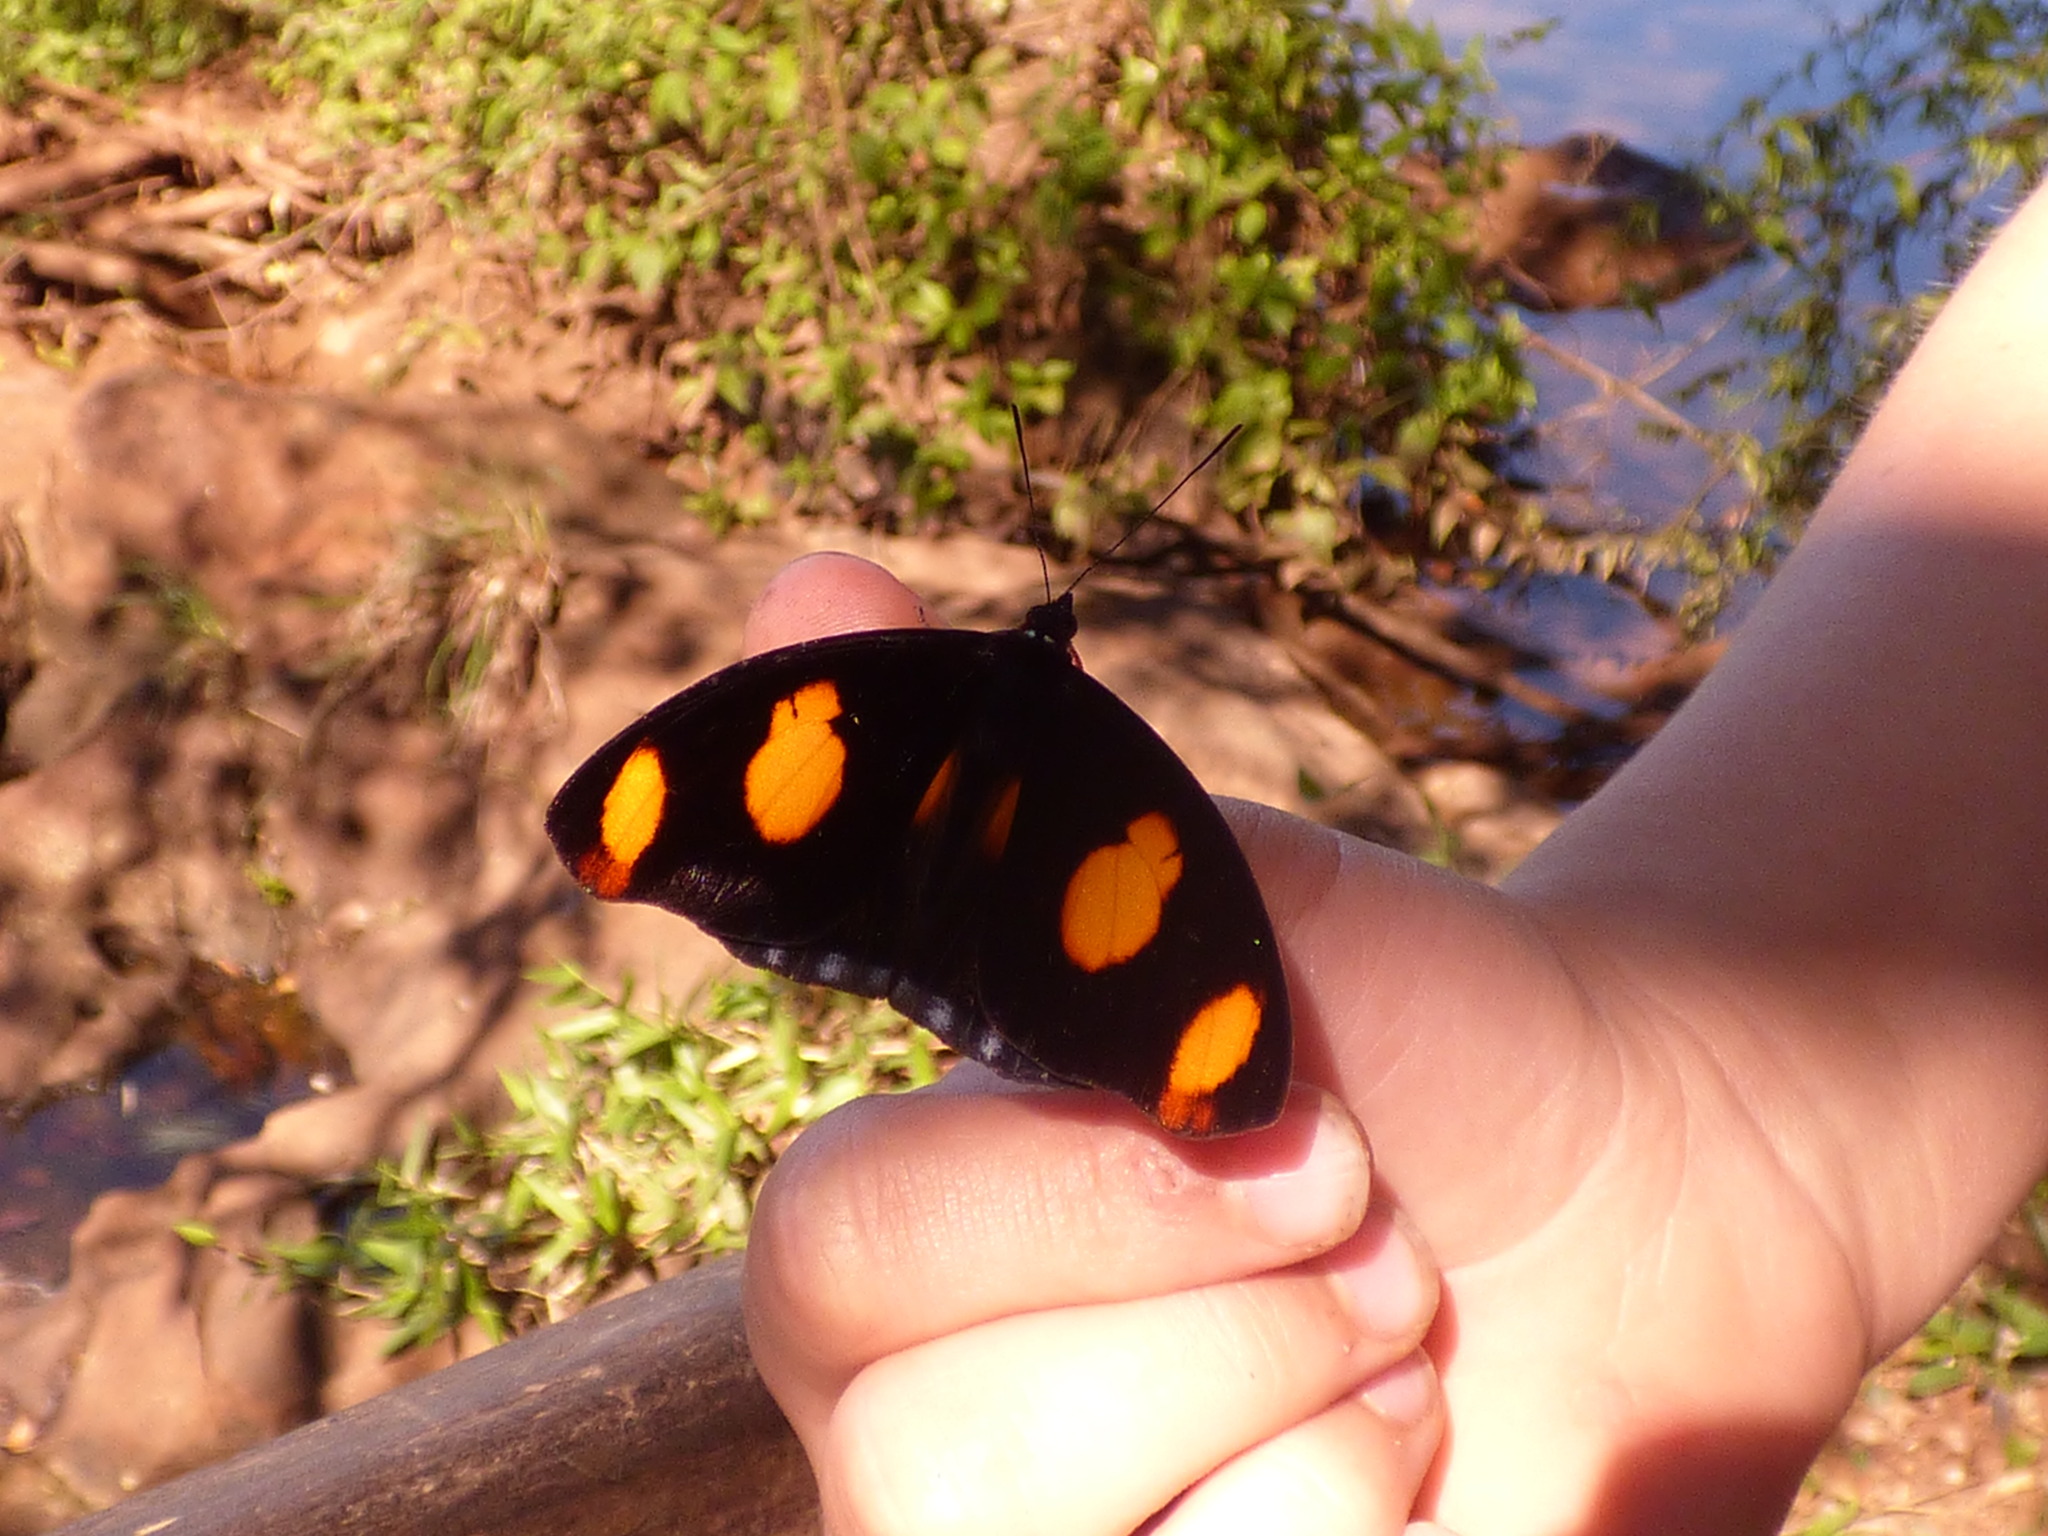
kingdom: Animalia
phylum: Arthropoda
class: Insecta
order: Lepidoptera
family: Nymphalidae
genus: Catonephele
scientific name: Catonephele numilia
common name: Blue-frosted banner
